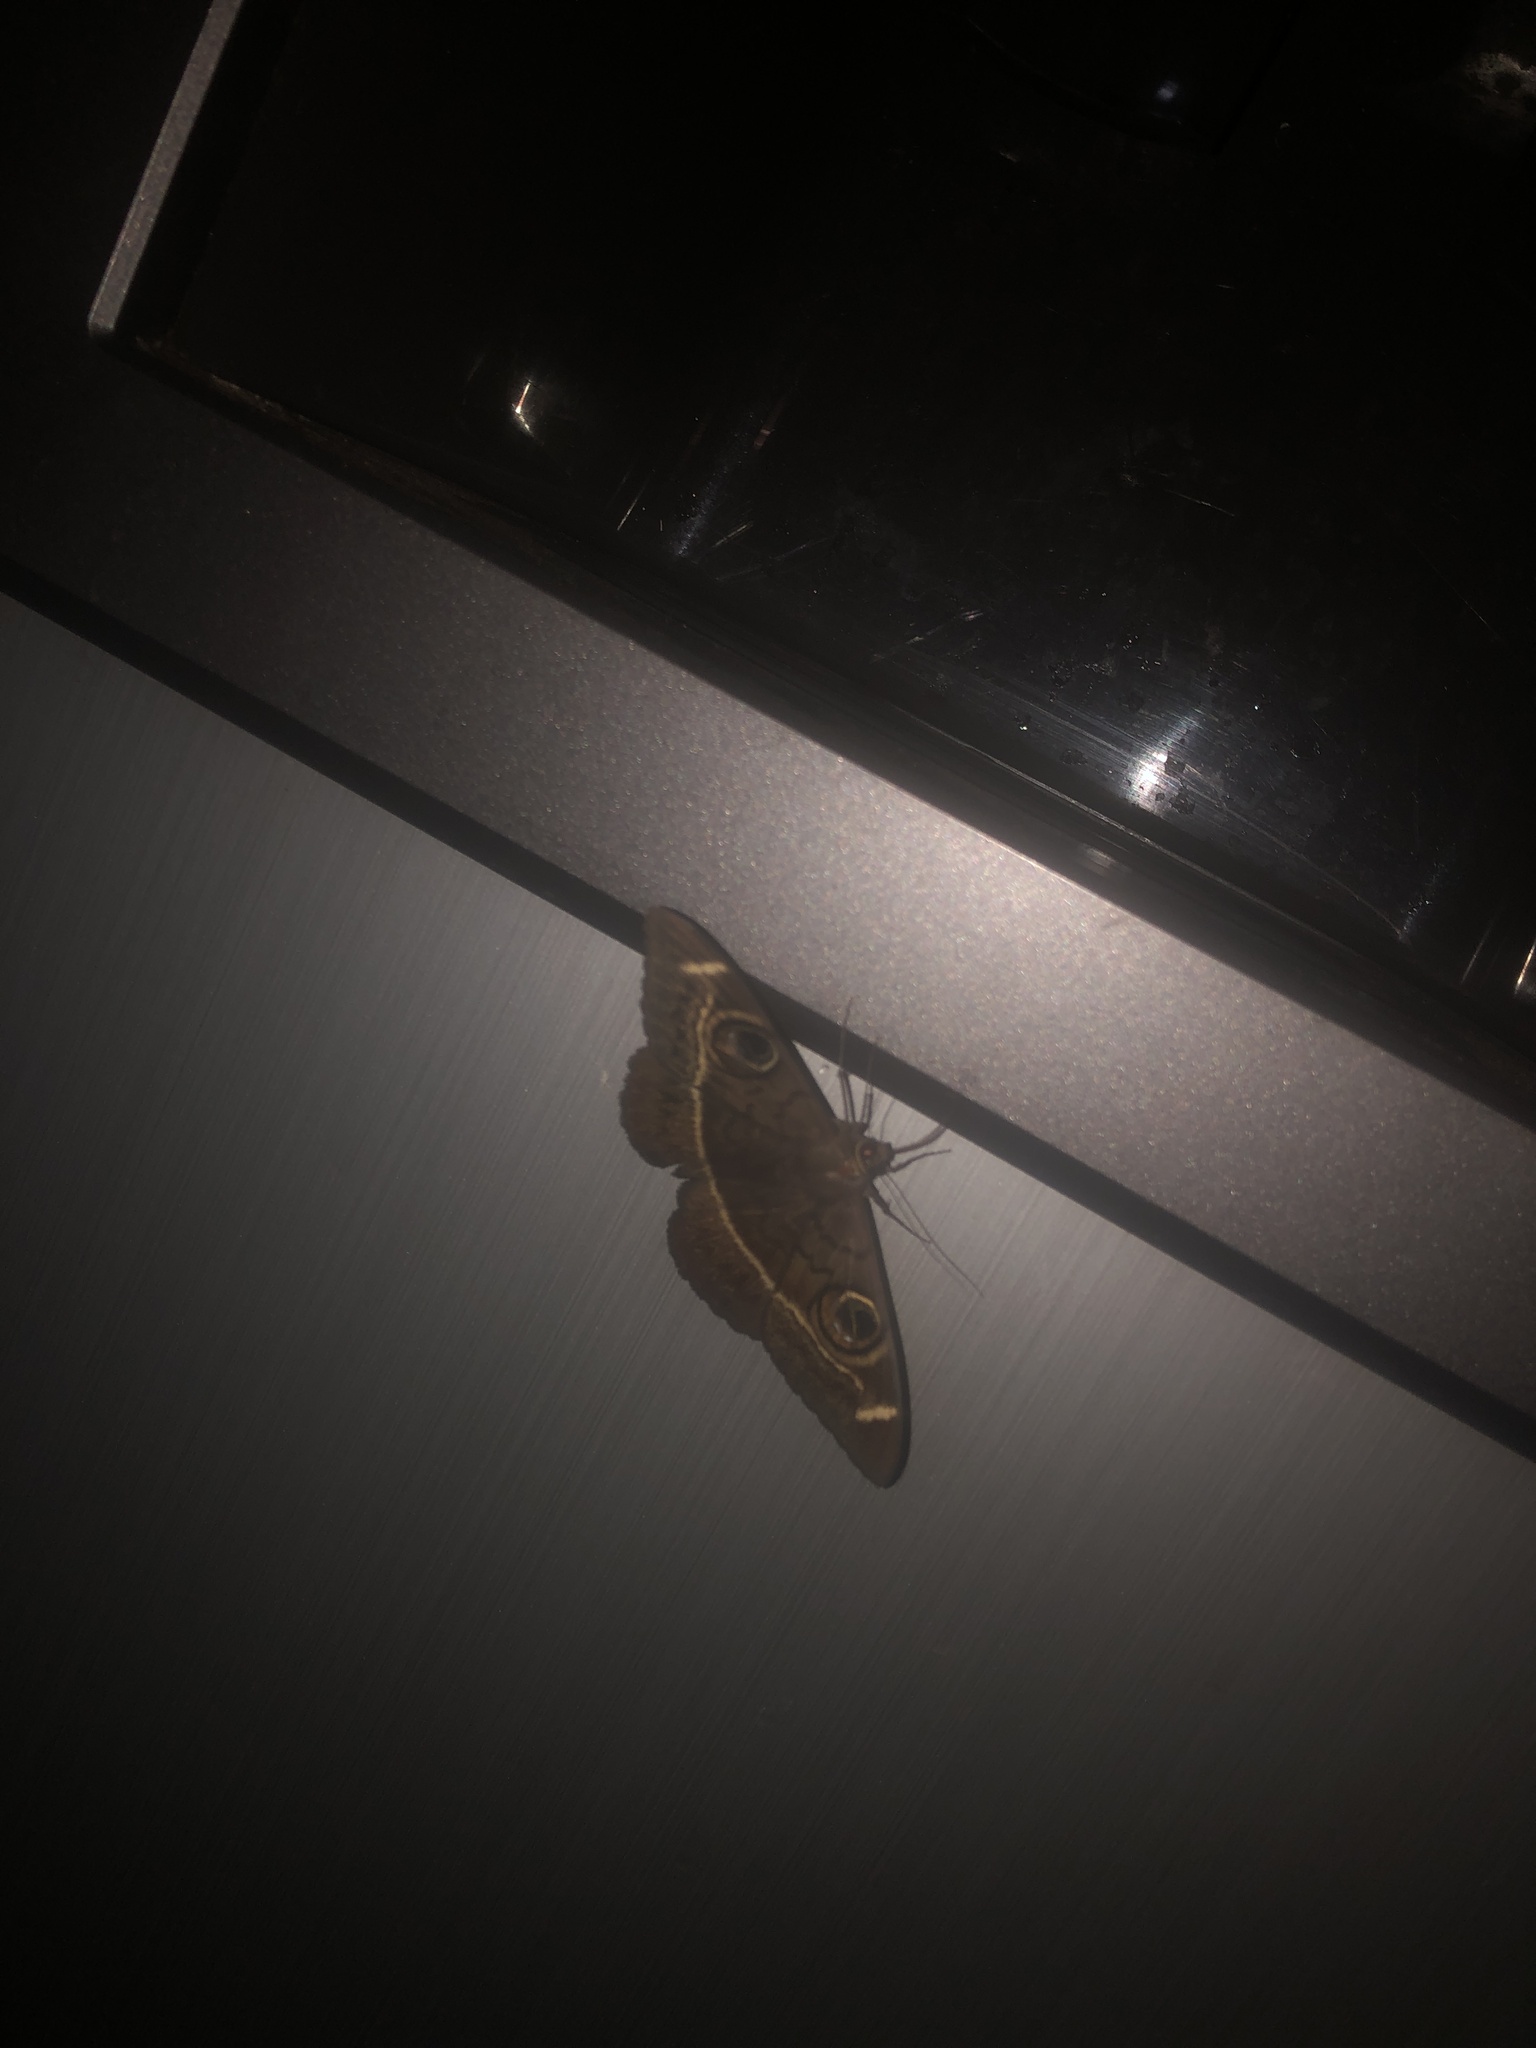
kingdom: Animalia
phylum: Arthropoda
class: Insecta
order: Lepidoptera
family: Erebidae
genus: Cyligramma
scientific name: Cyligramma latona
